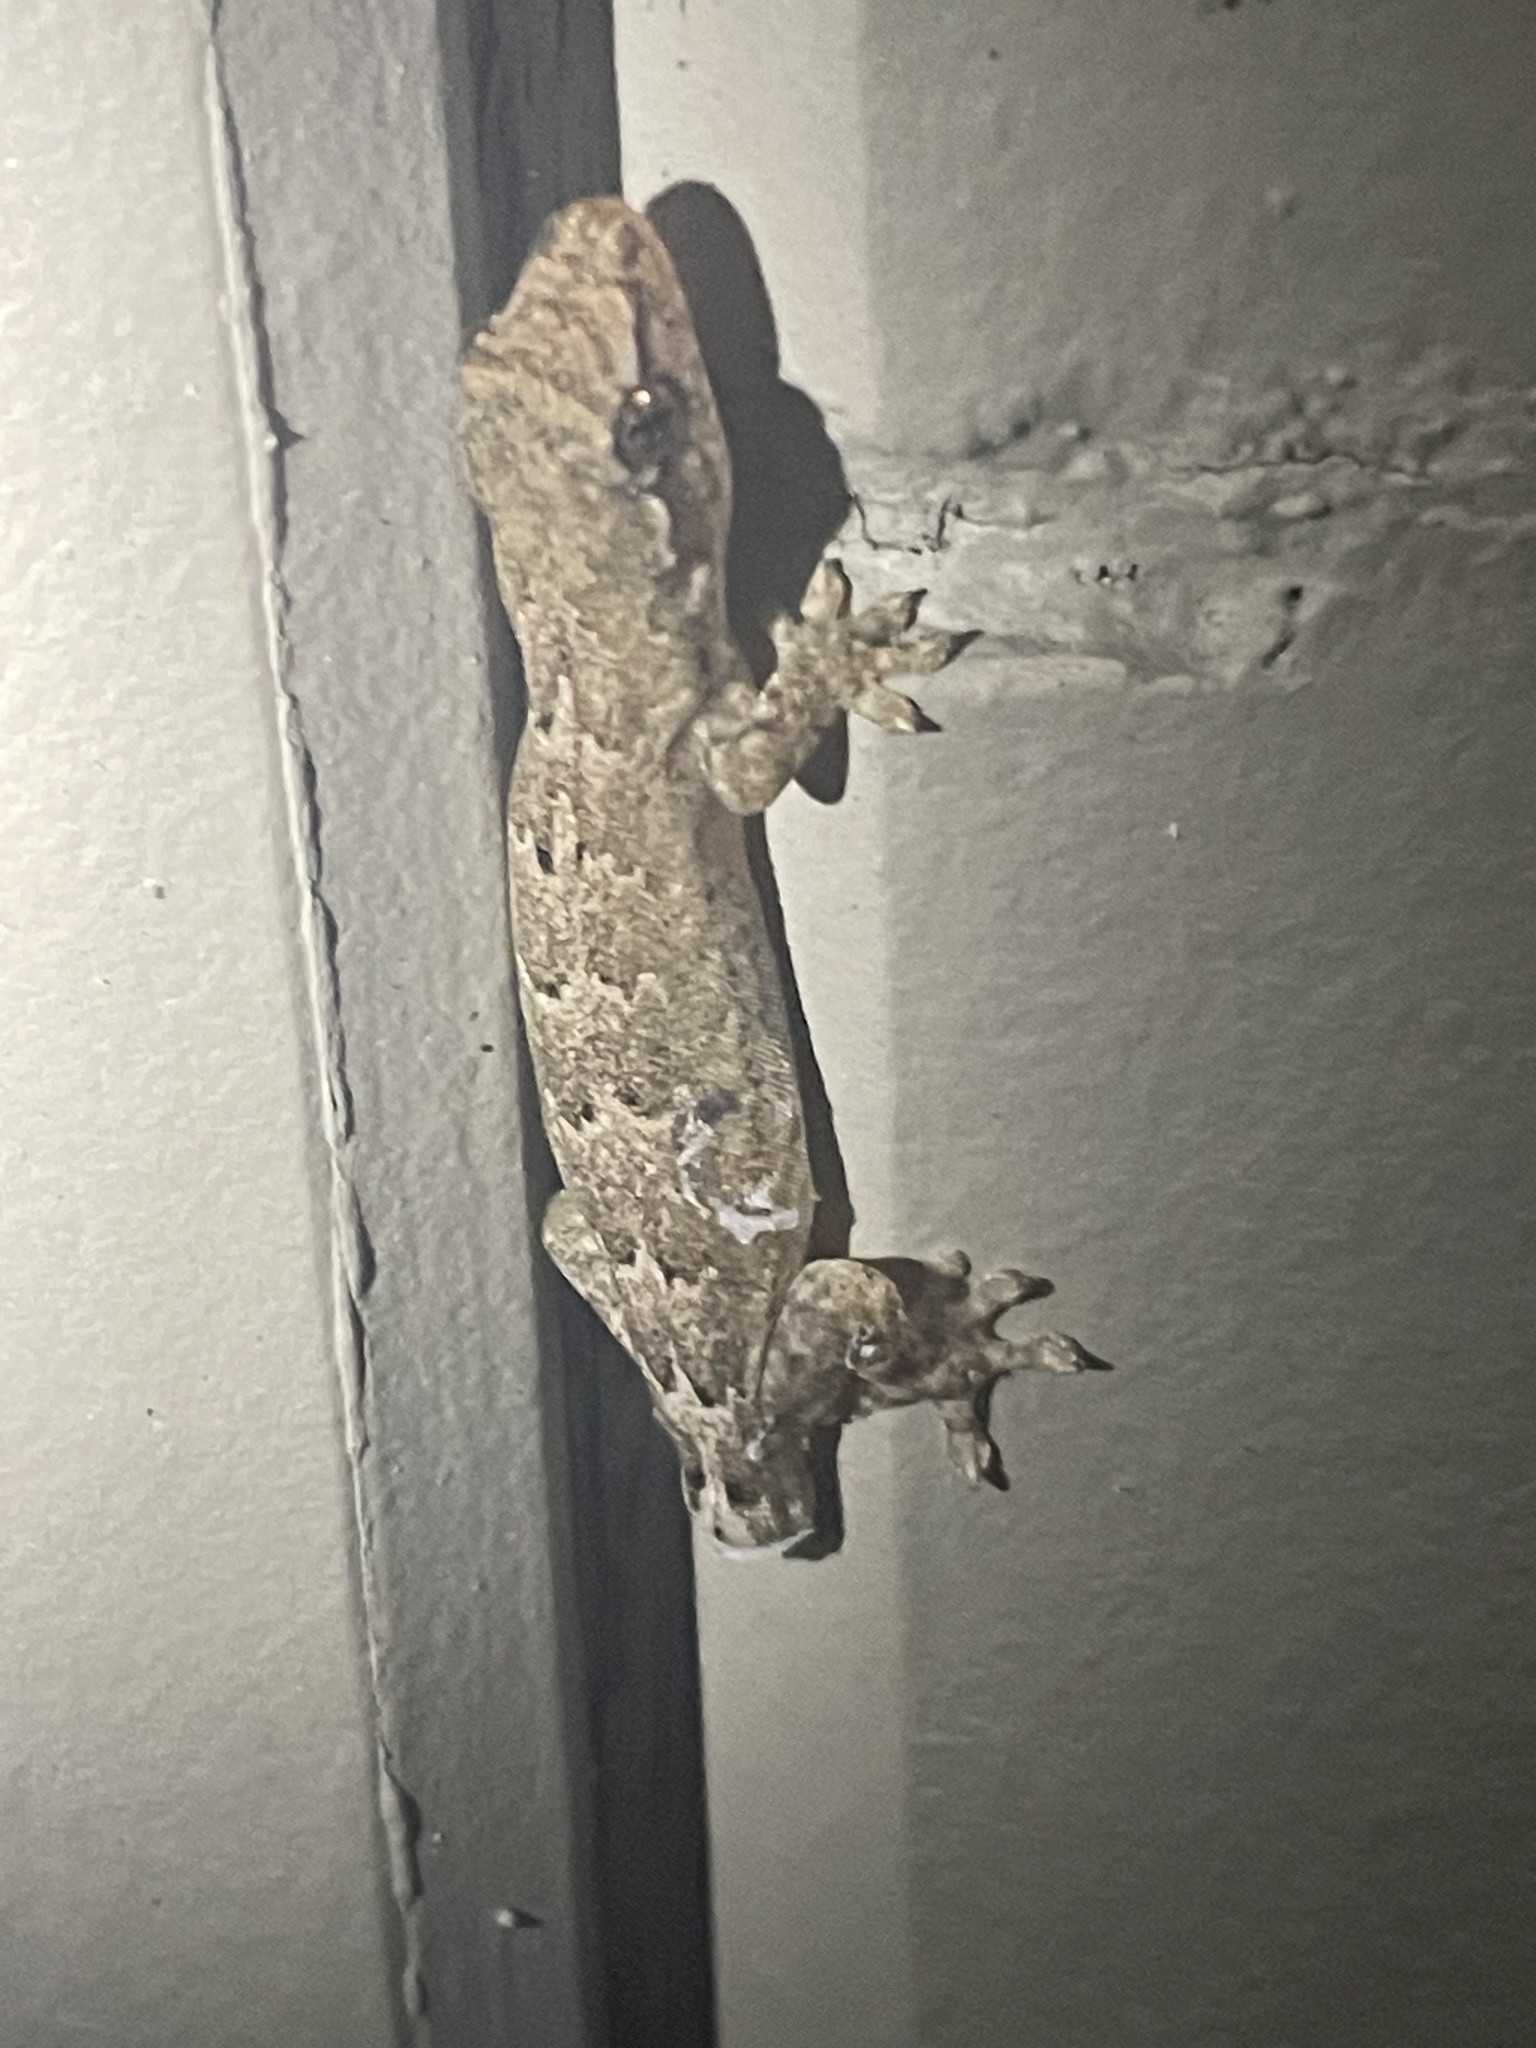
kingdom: Animalia
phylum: Chordata
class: Squamata
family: Gekkonidae
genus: Lepidodactylus
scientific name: Lepidodactylus lugubris
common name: Mourning gecko
